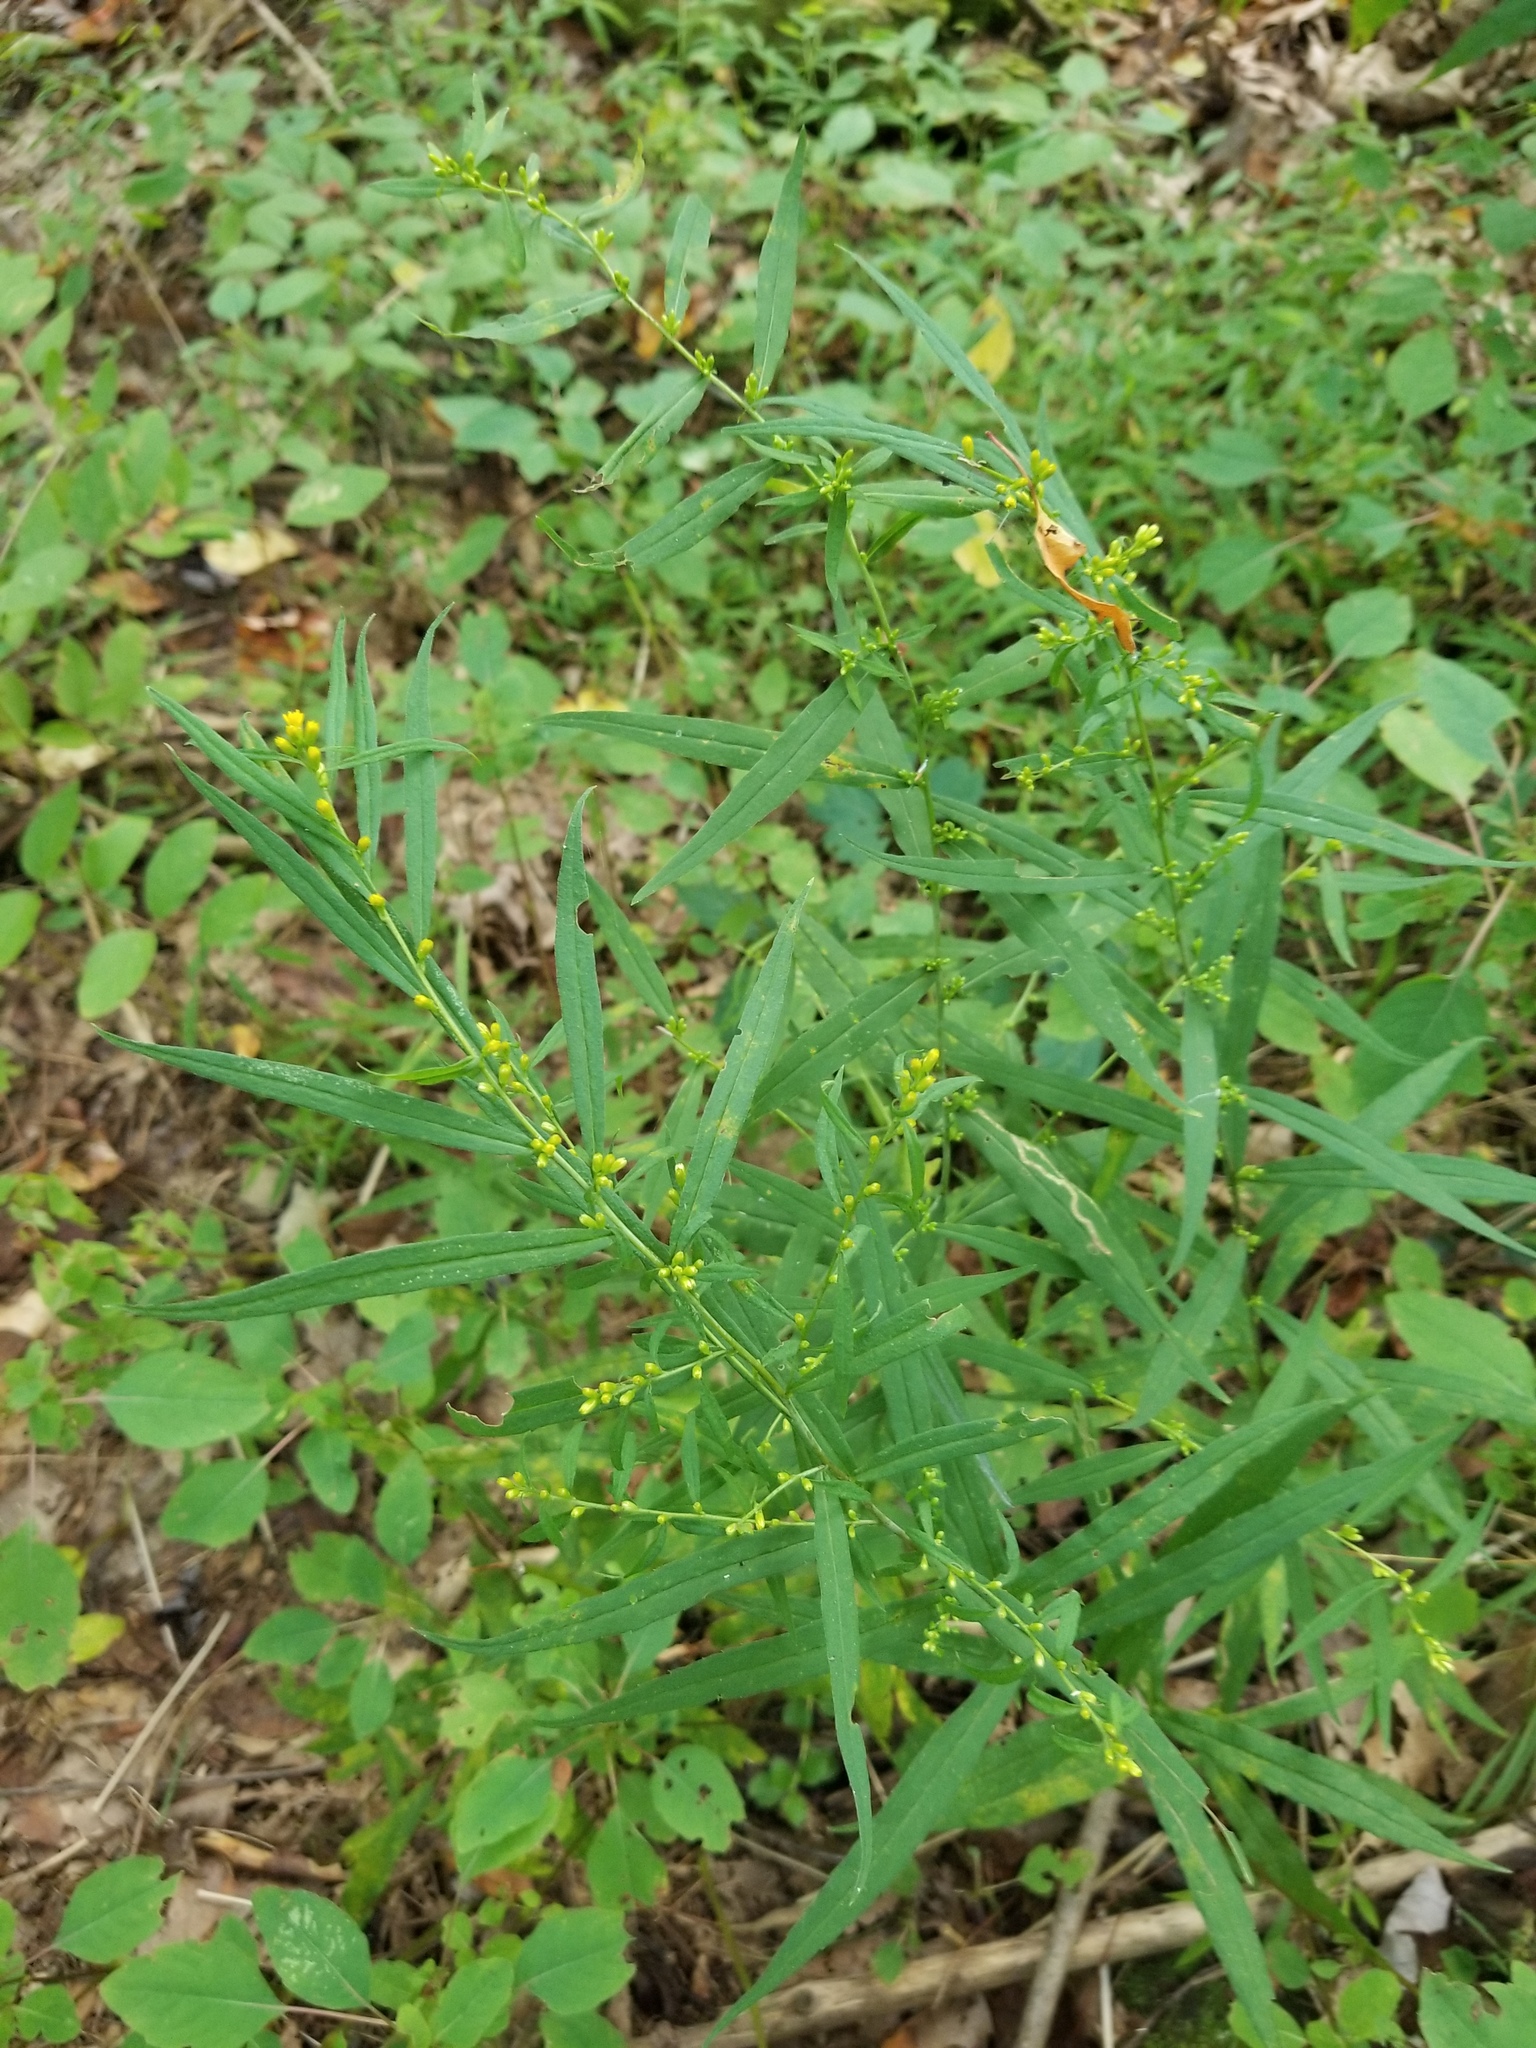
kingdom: Plantae
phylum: Tracheophyta
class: Magnoliopsida
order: Asterales
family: Asteraceae
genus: Solidago
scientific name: Solidago caesia
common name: Woodland goldenrod
